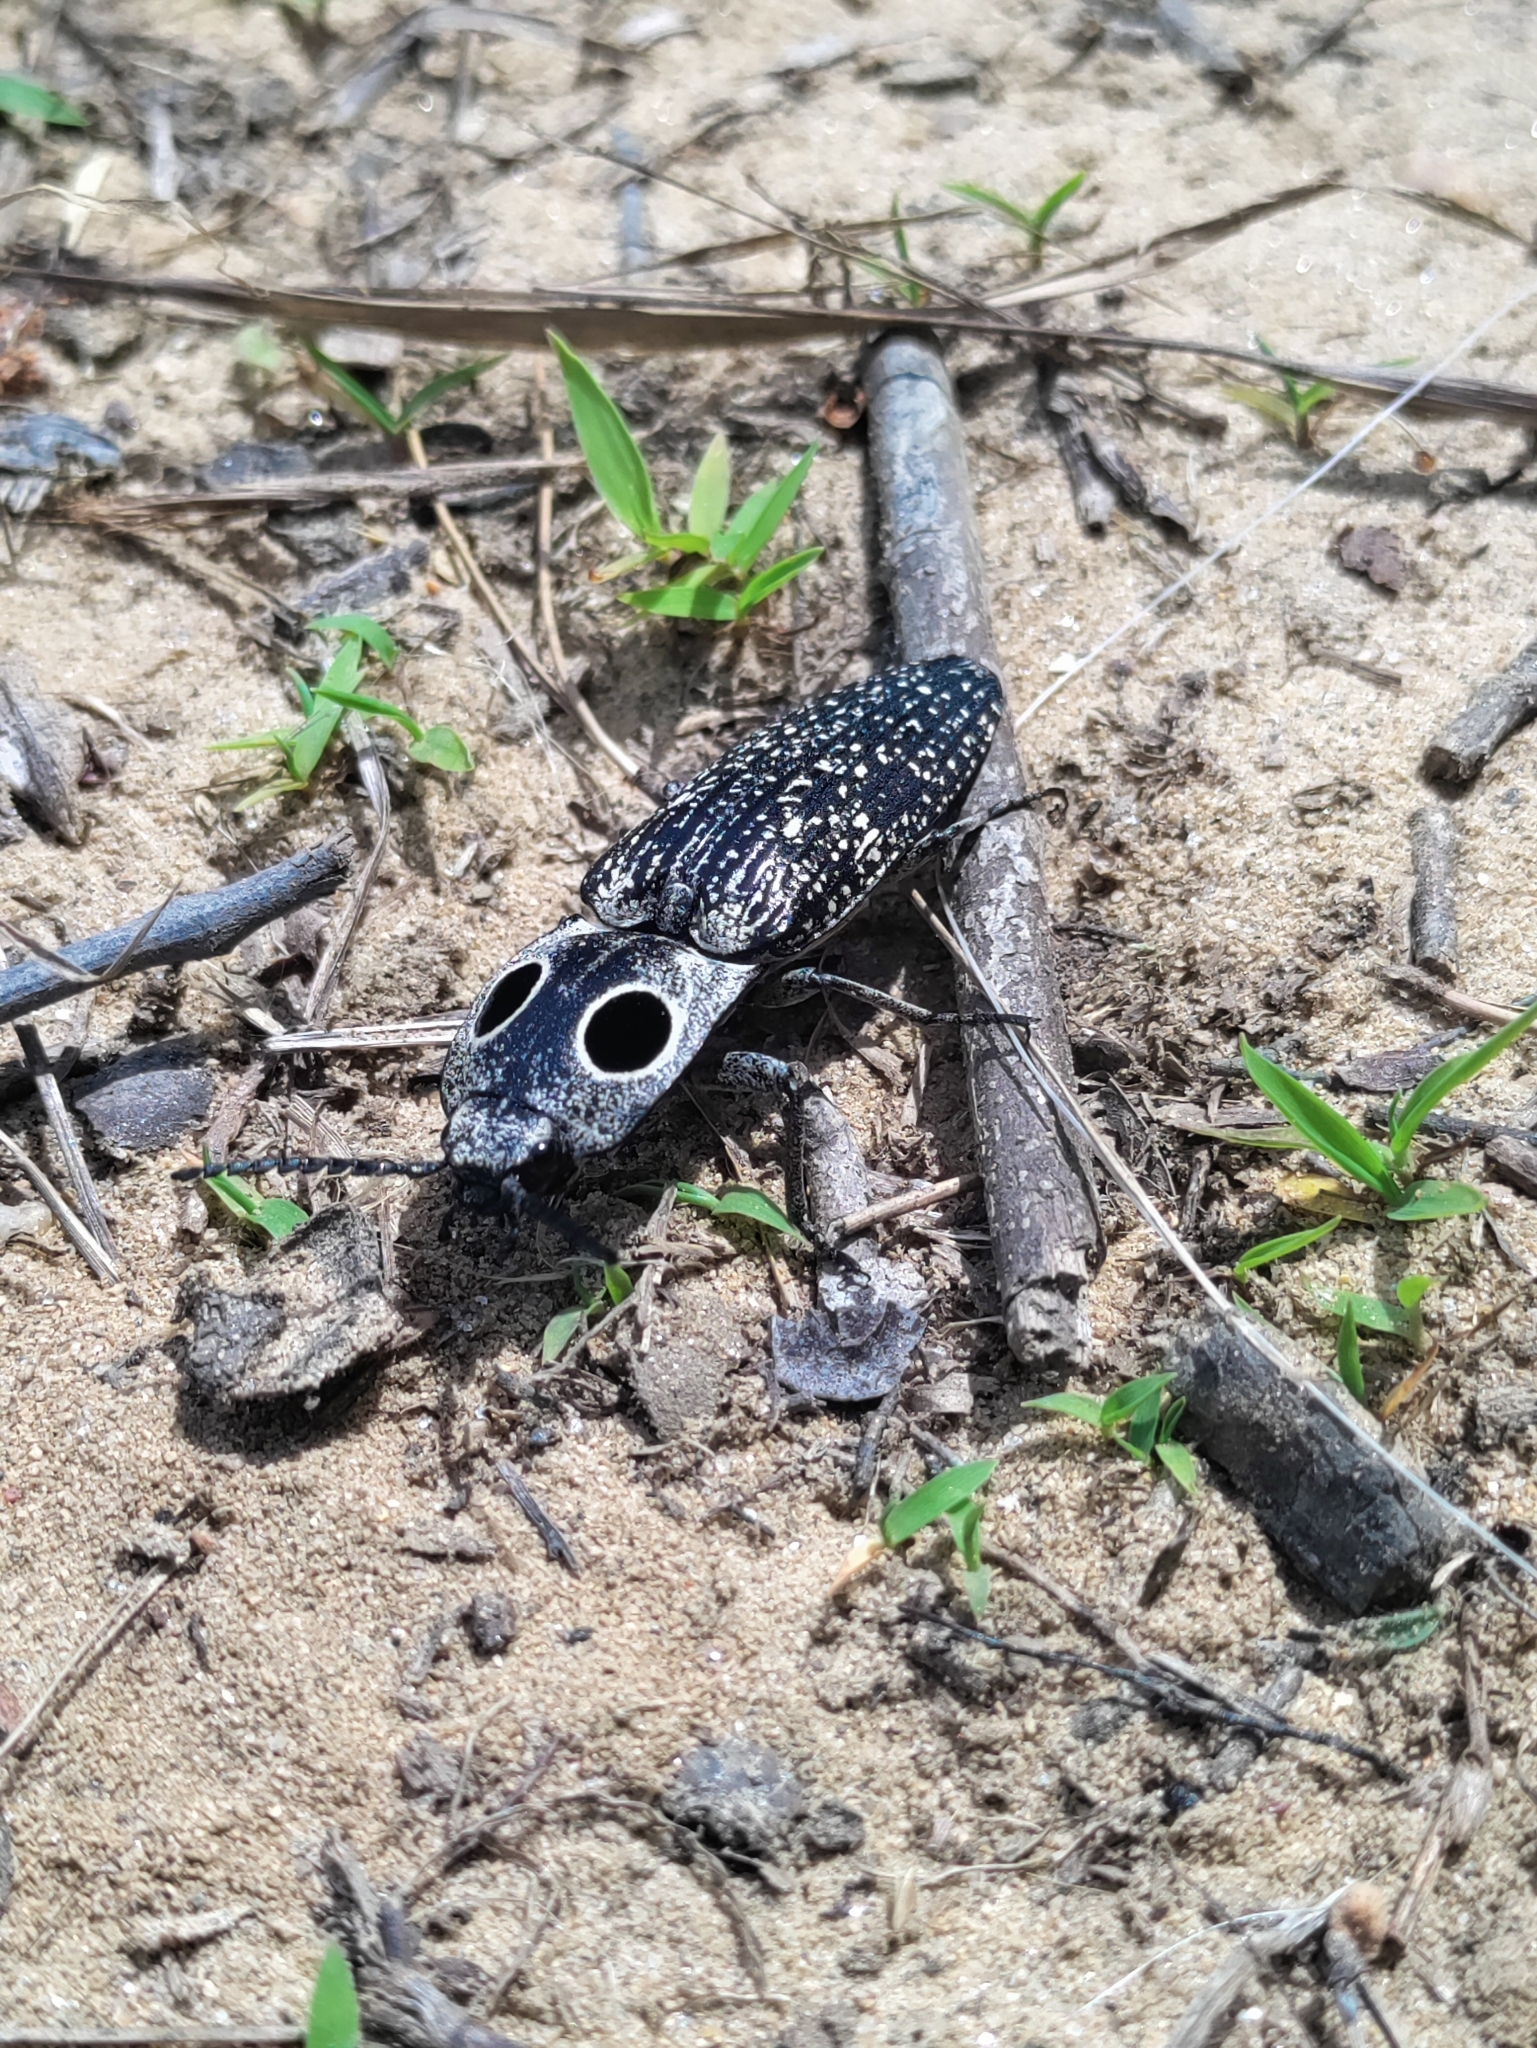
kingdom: Animalia
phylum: Arthropoda
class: Insecta
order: Coleoptera
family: Elateridae
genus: Alaus
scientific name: Alaus oculatus
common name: Eastern eyed click beetle
